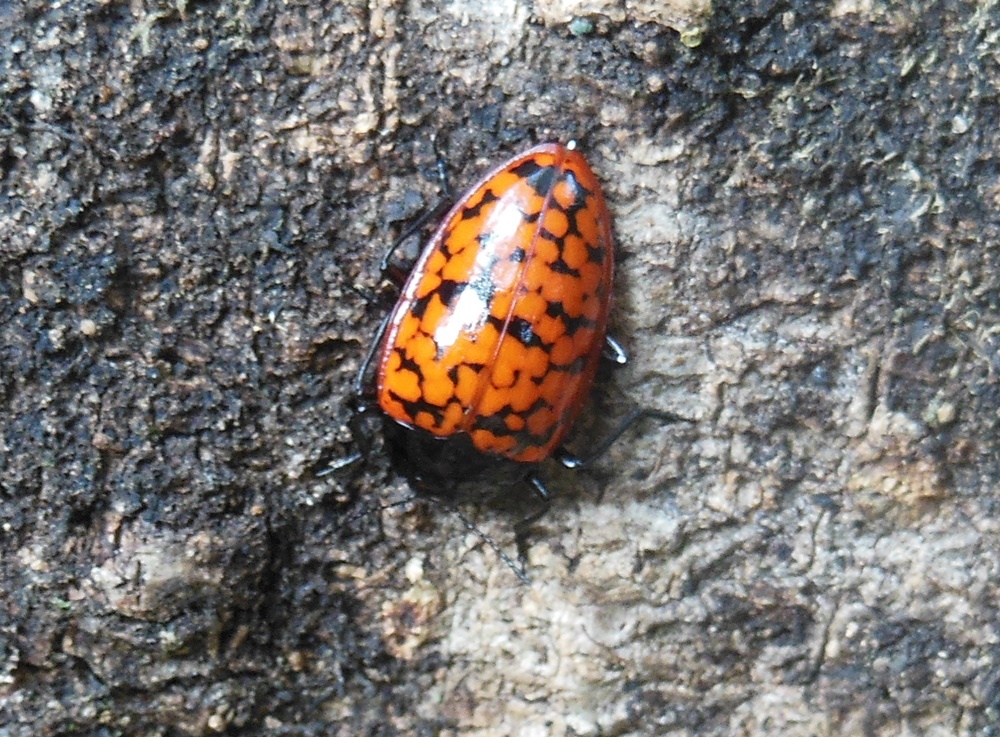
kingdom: Animalia
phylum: Arthropoda
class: Insecta
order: Coleoptera
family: Erotylidae
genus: Erotylina
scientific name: Erotylina
